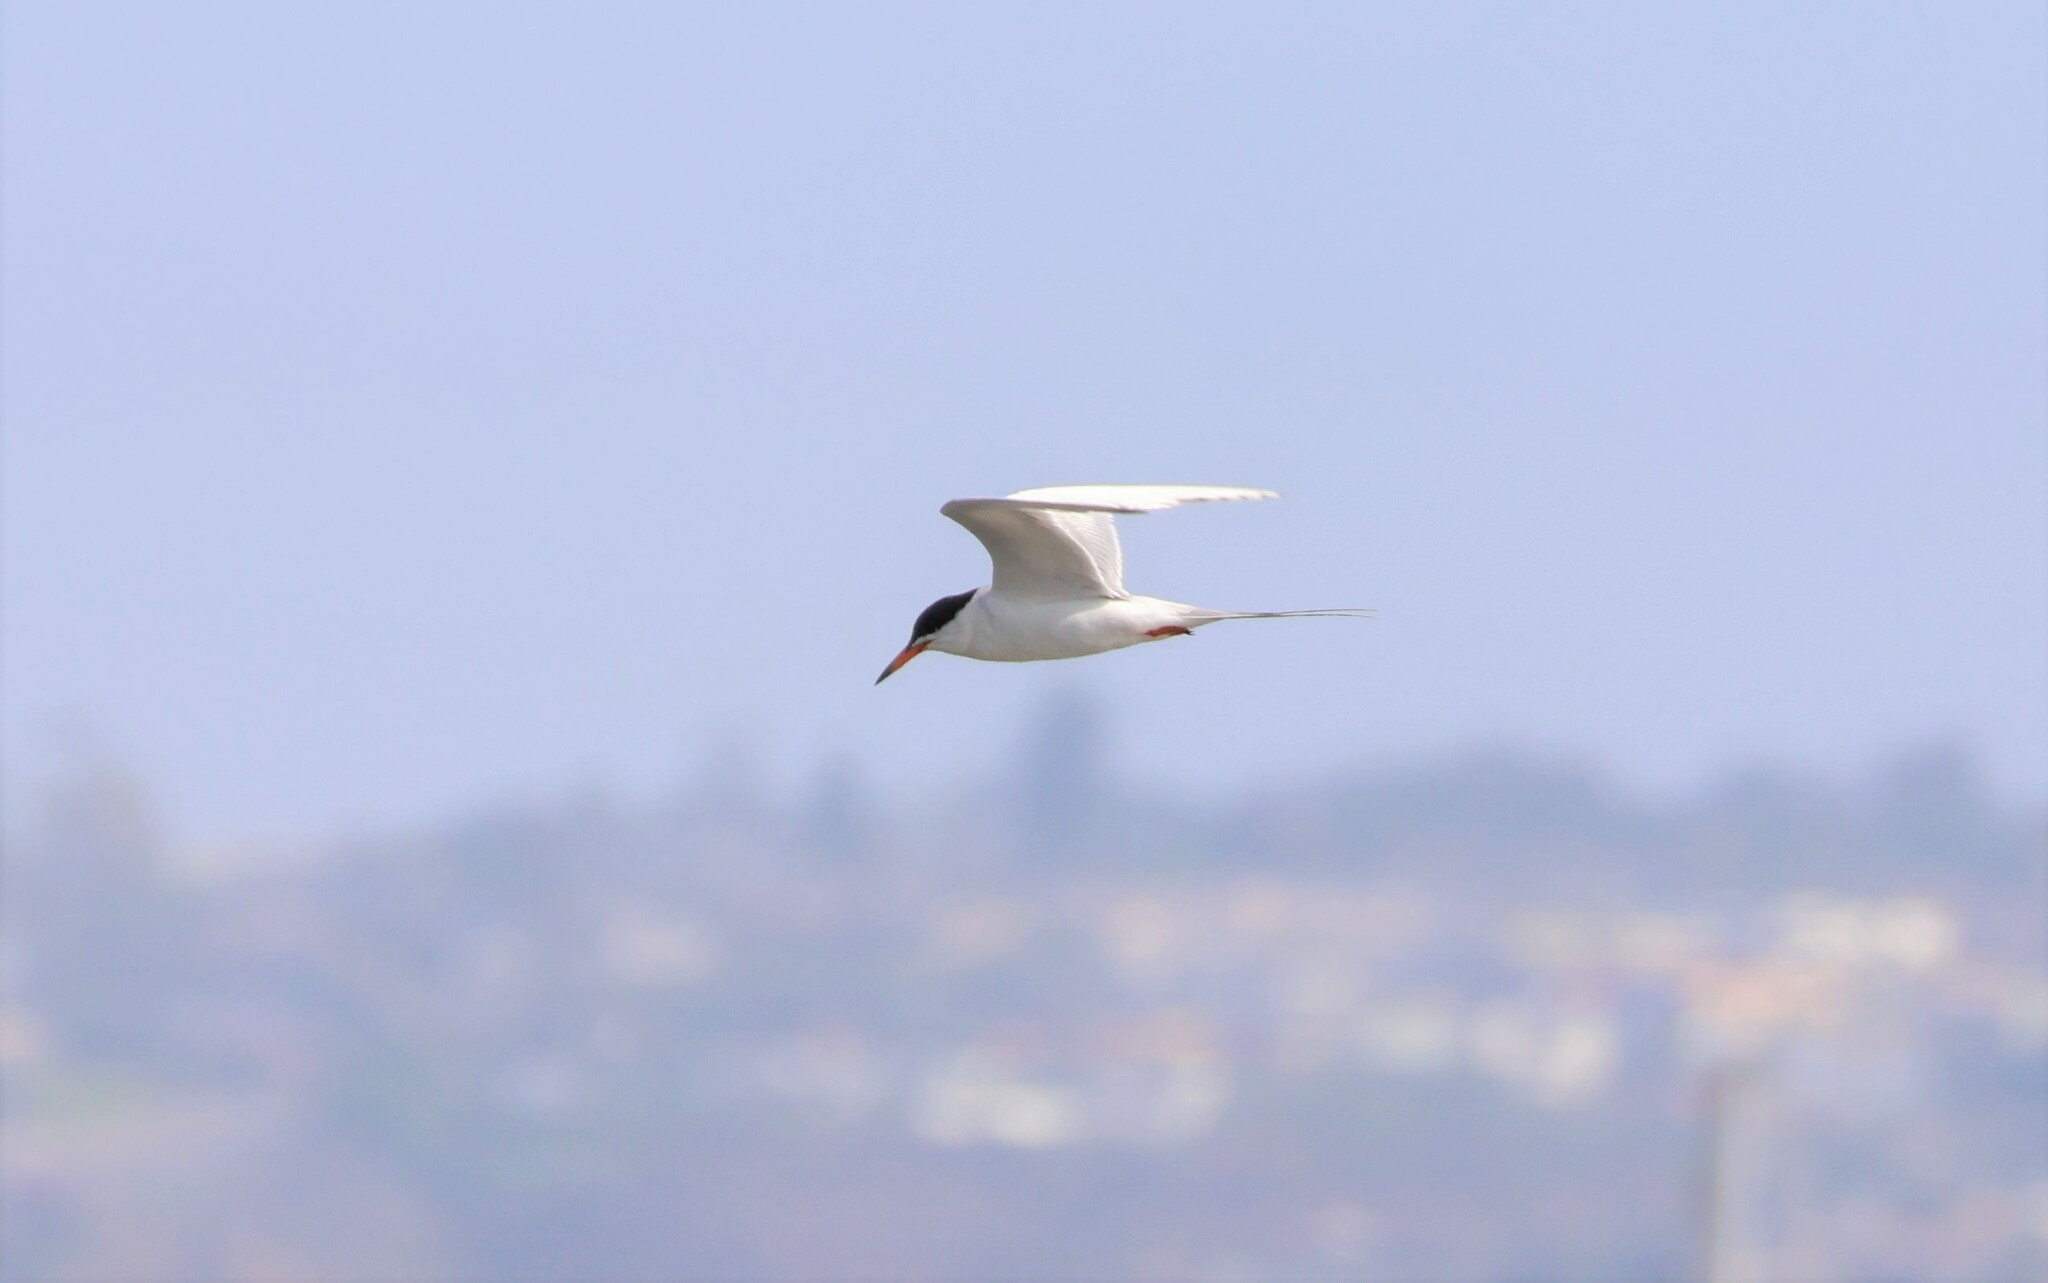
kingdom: Animalia
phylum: Chordata
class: Aves
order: Charadriiformes
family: Laridae
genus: Sterna
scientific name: Sterna forsteri
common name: Forster's tern
